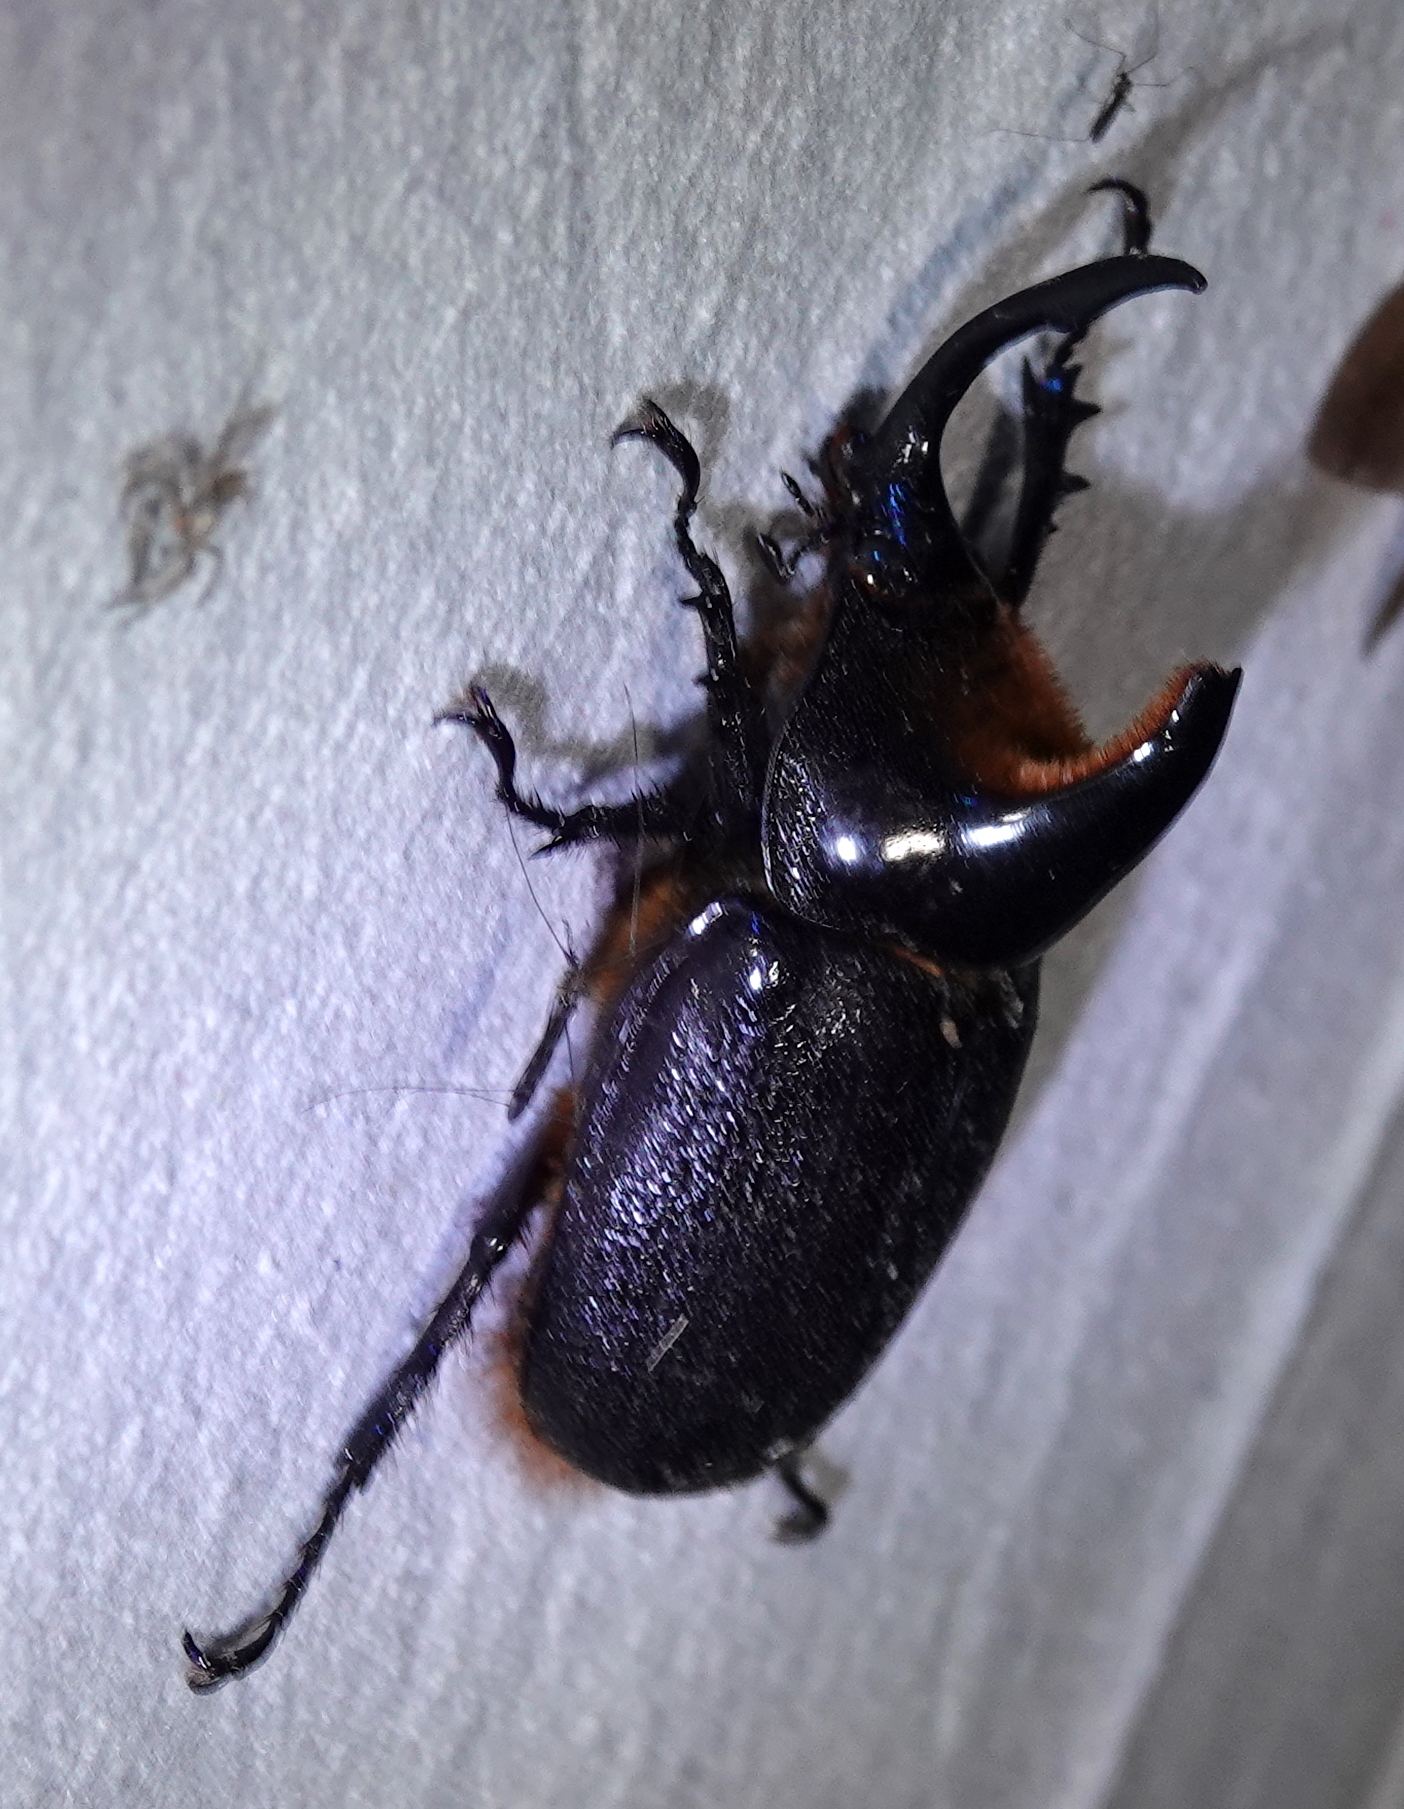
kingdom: Animalia
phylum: Arthropoda
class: Insecta
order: Coleoptera
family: Scarabaeidae
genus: Heterogomphus
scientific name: Heterogomphus schoenherri
